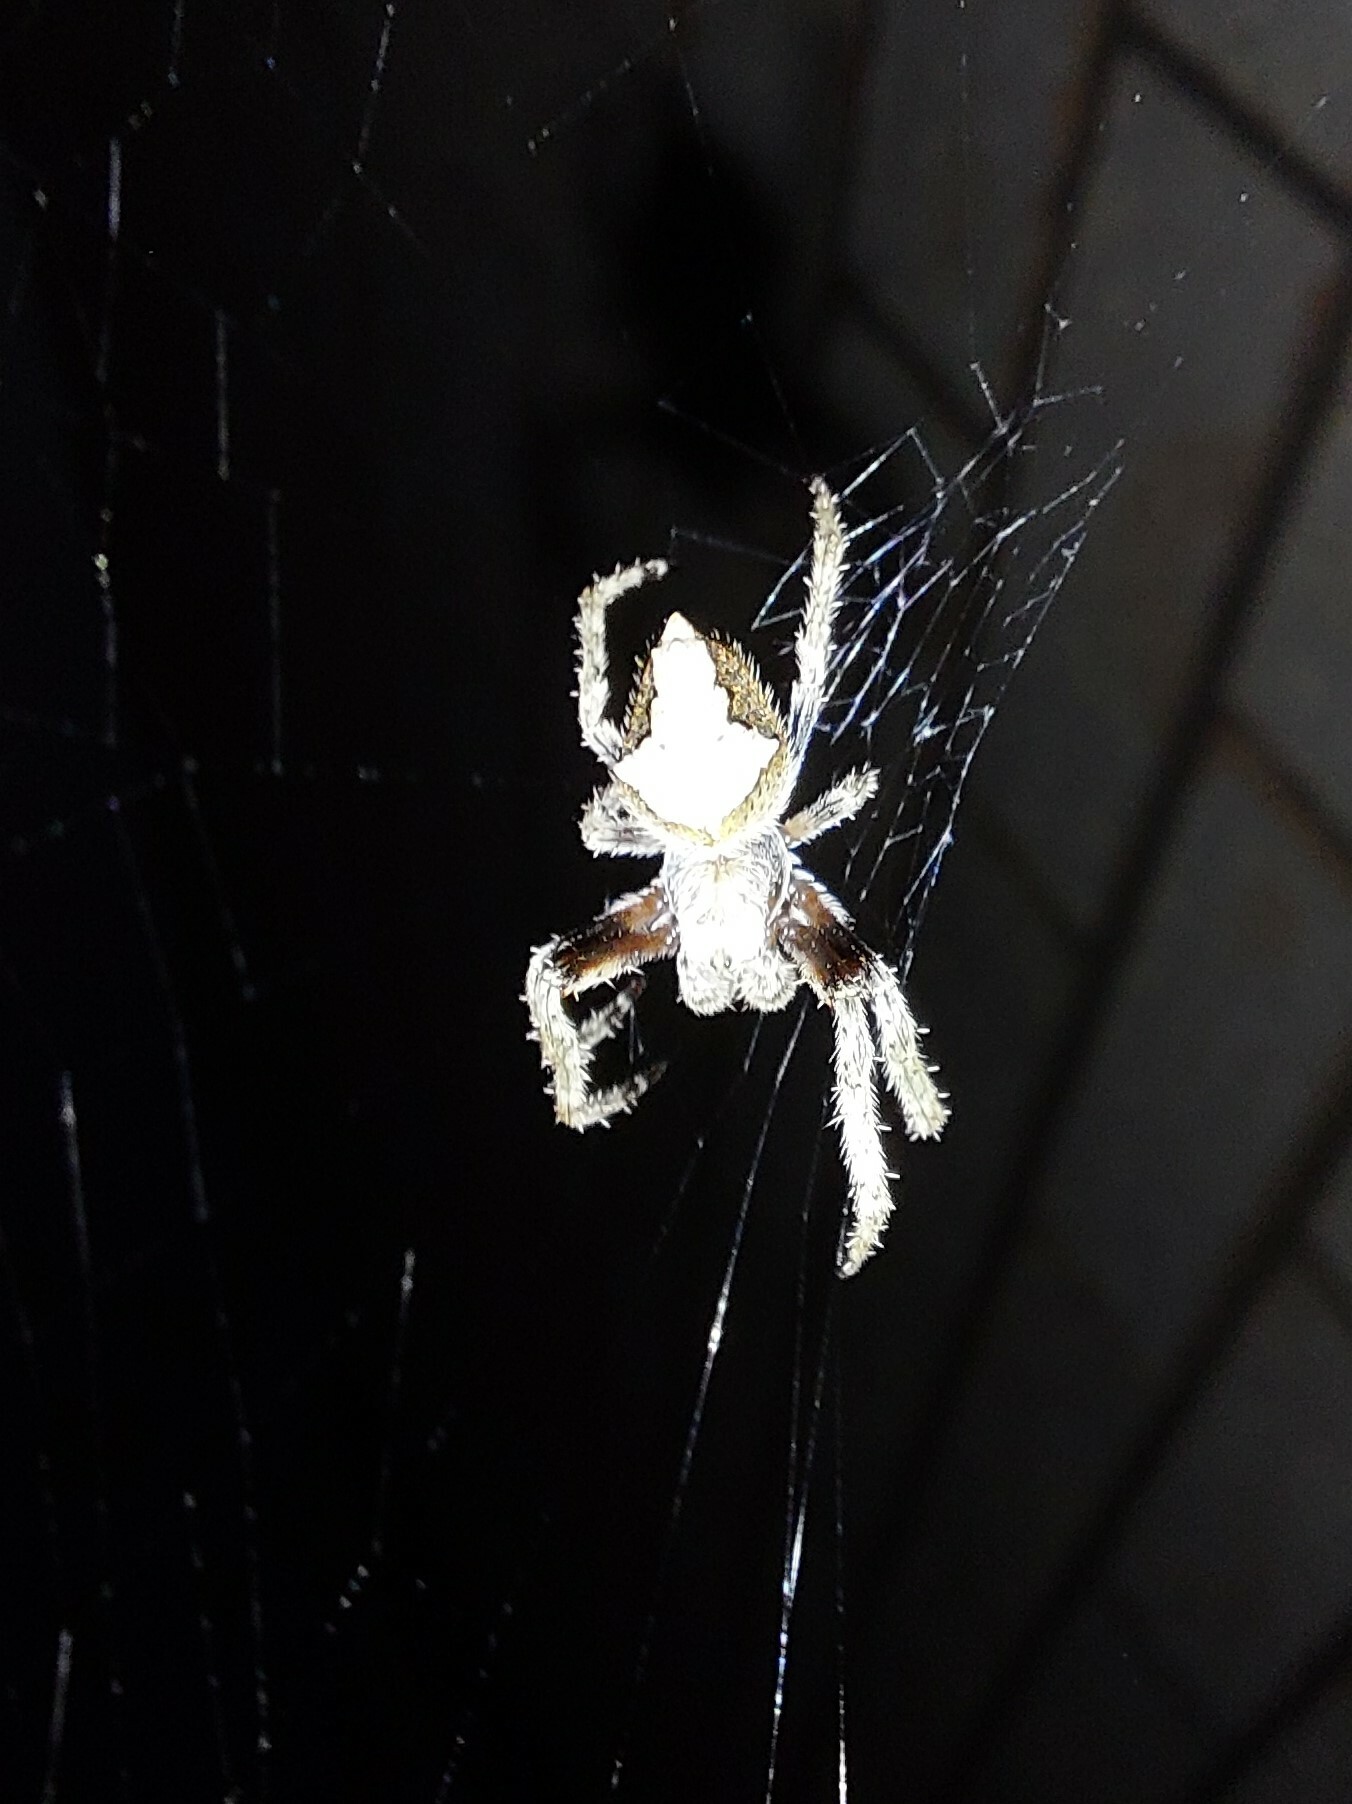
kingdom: Animalia
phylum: Arthropoda
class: Arachnida
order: Araneae
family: Araneidae
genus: Eriophora
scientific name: Eriophora pustulosa
